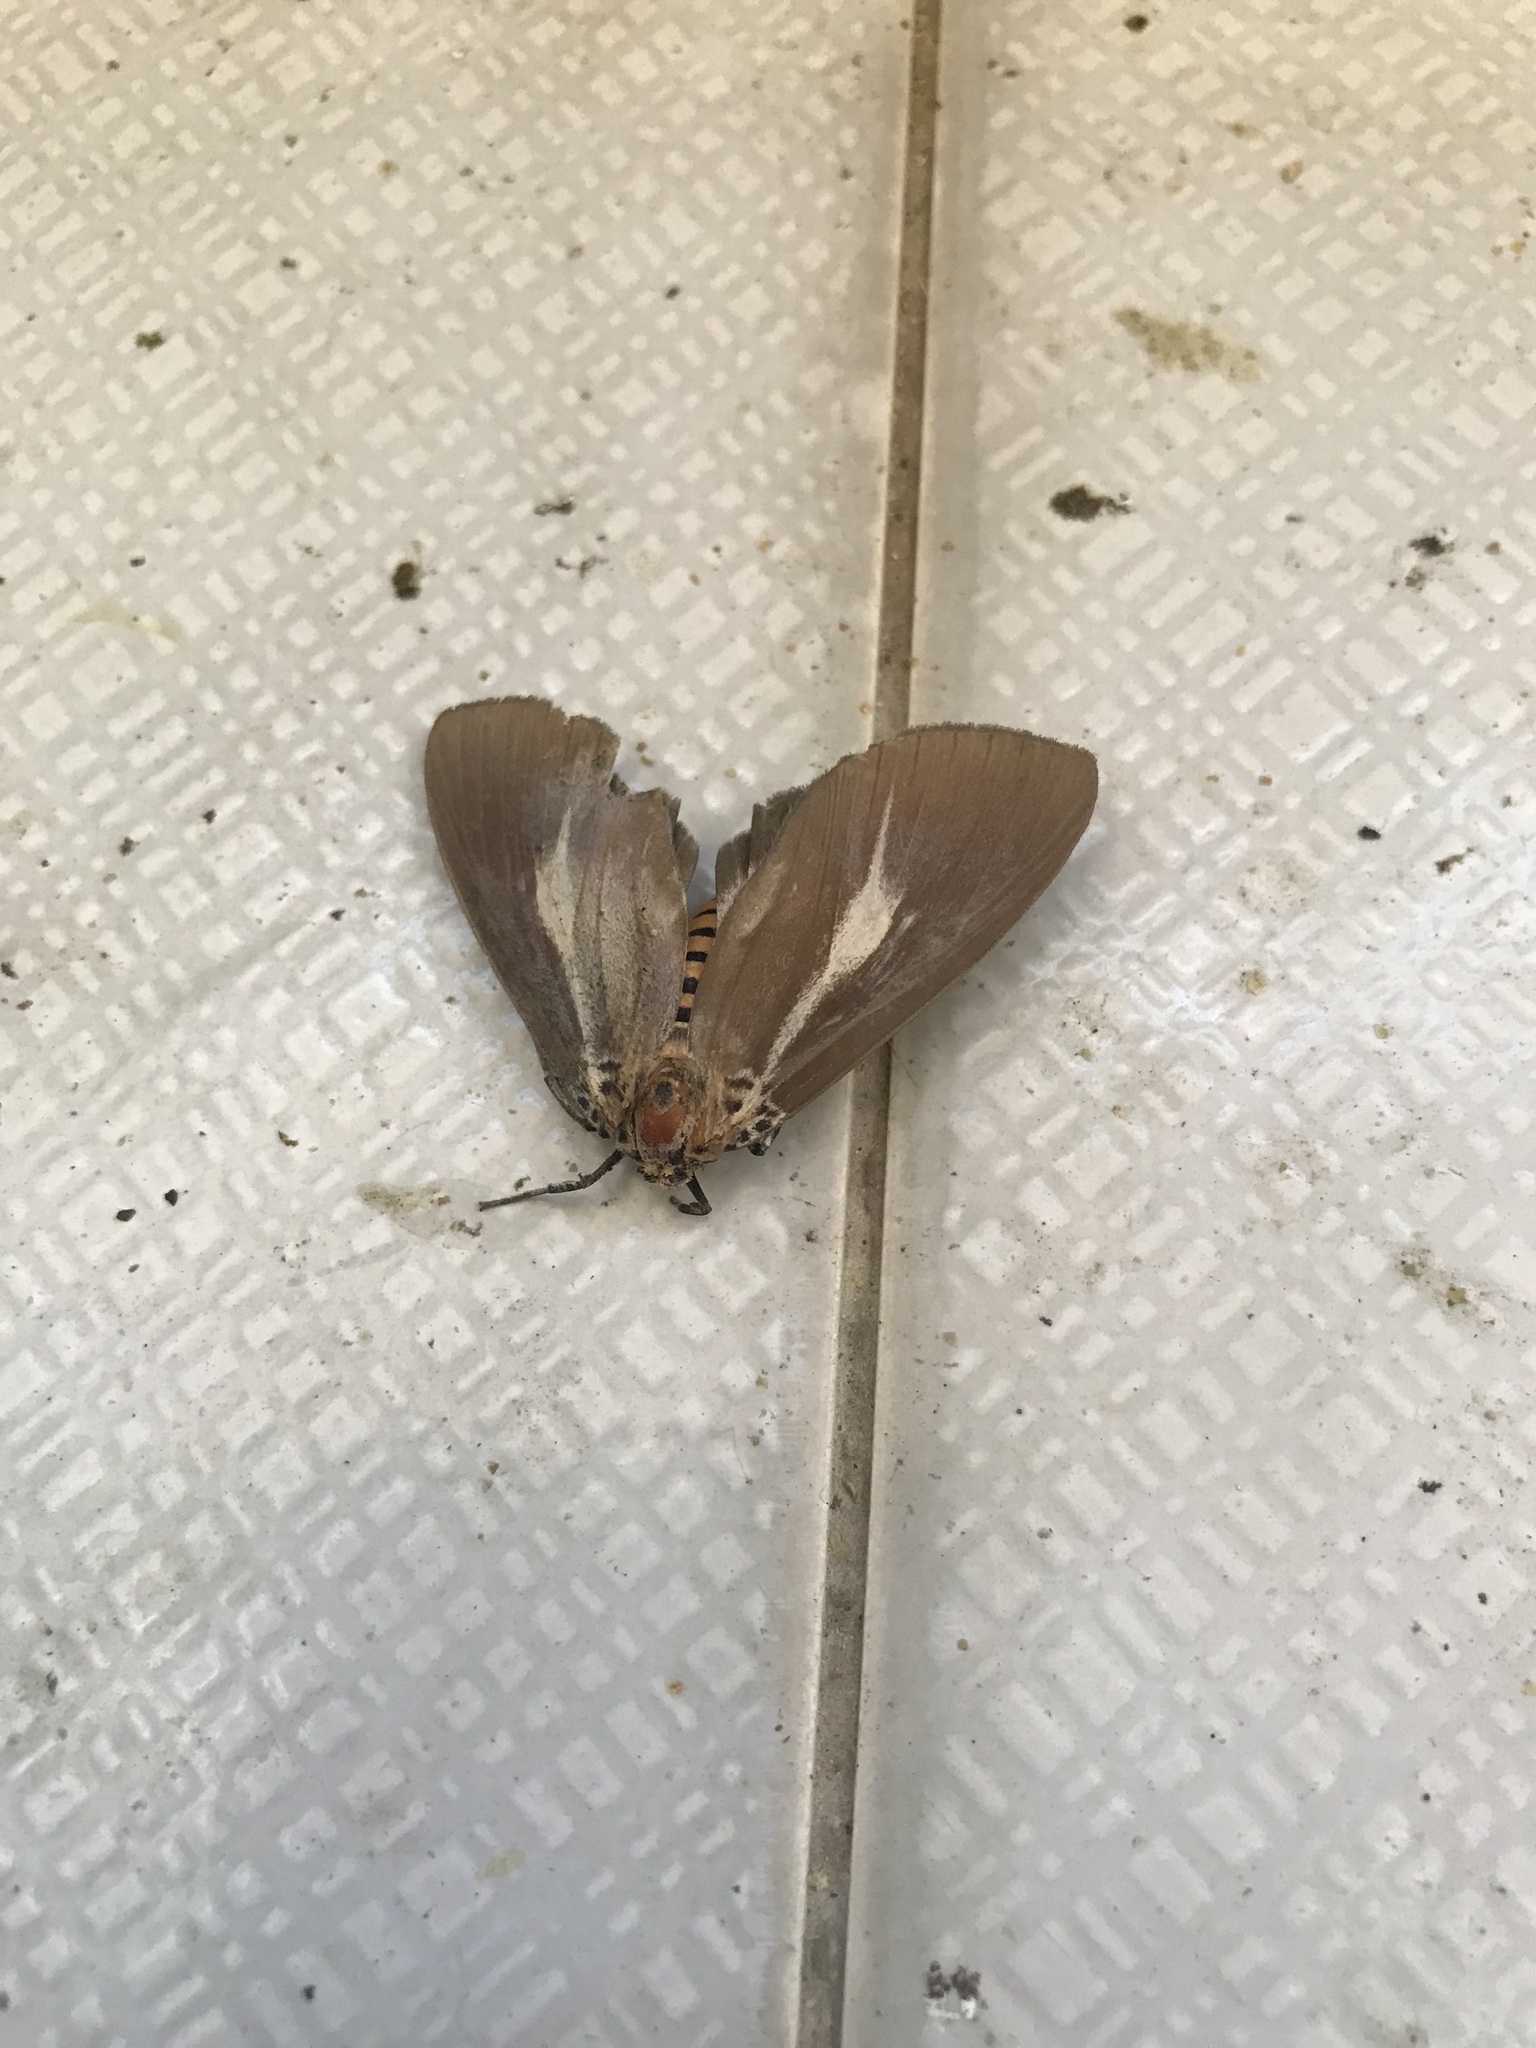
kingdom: Animalia
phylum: Arthropoda
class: Insecta
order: Lepidoptera
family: Erebidae
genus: Asota
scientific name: Asota heliconia
